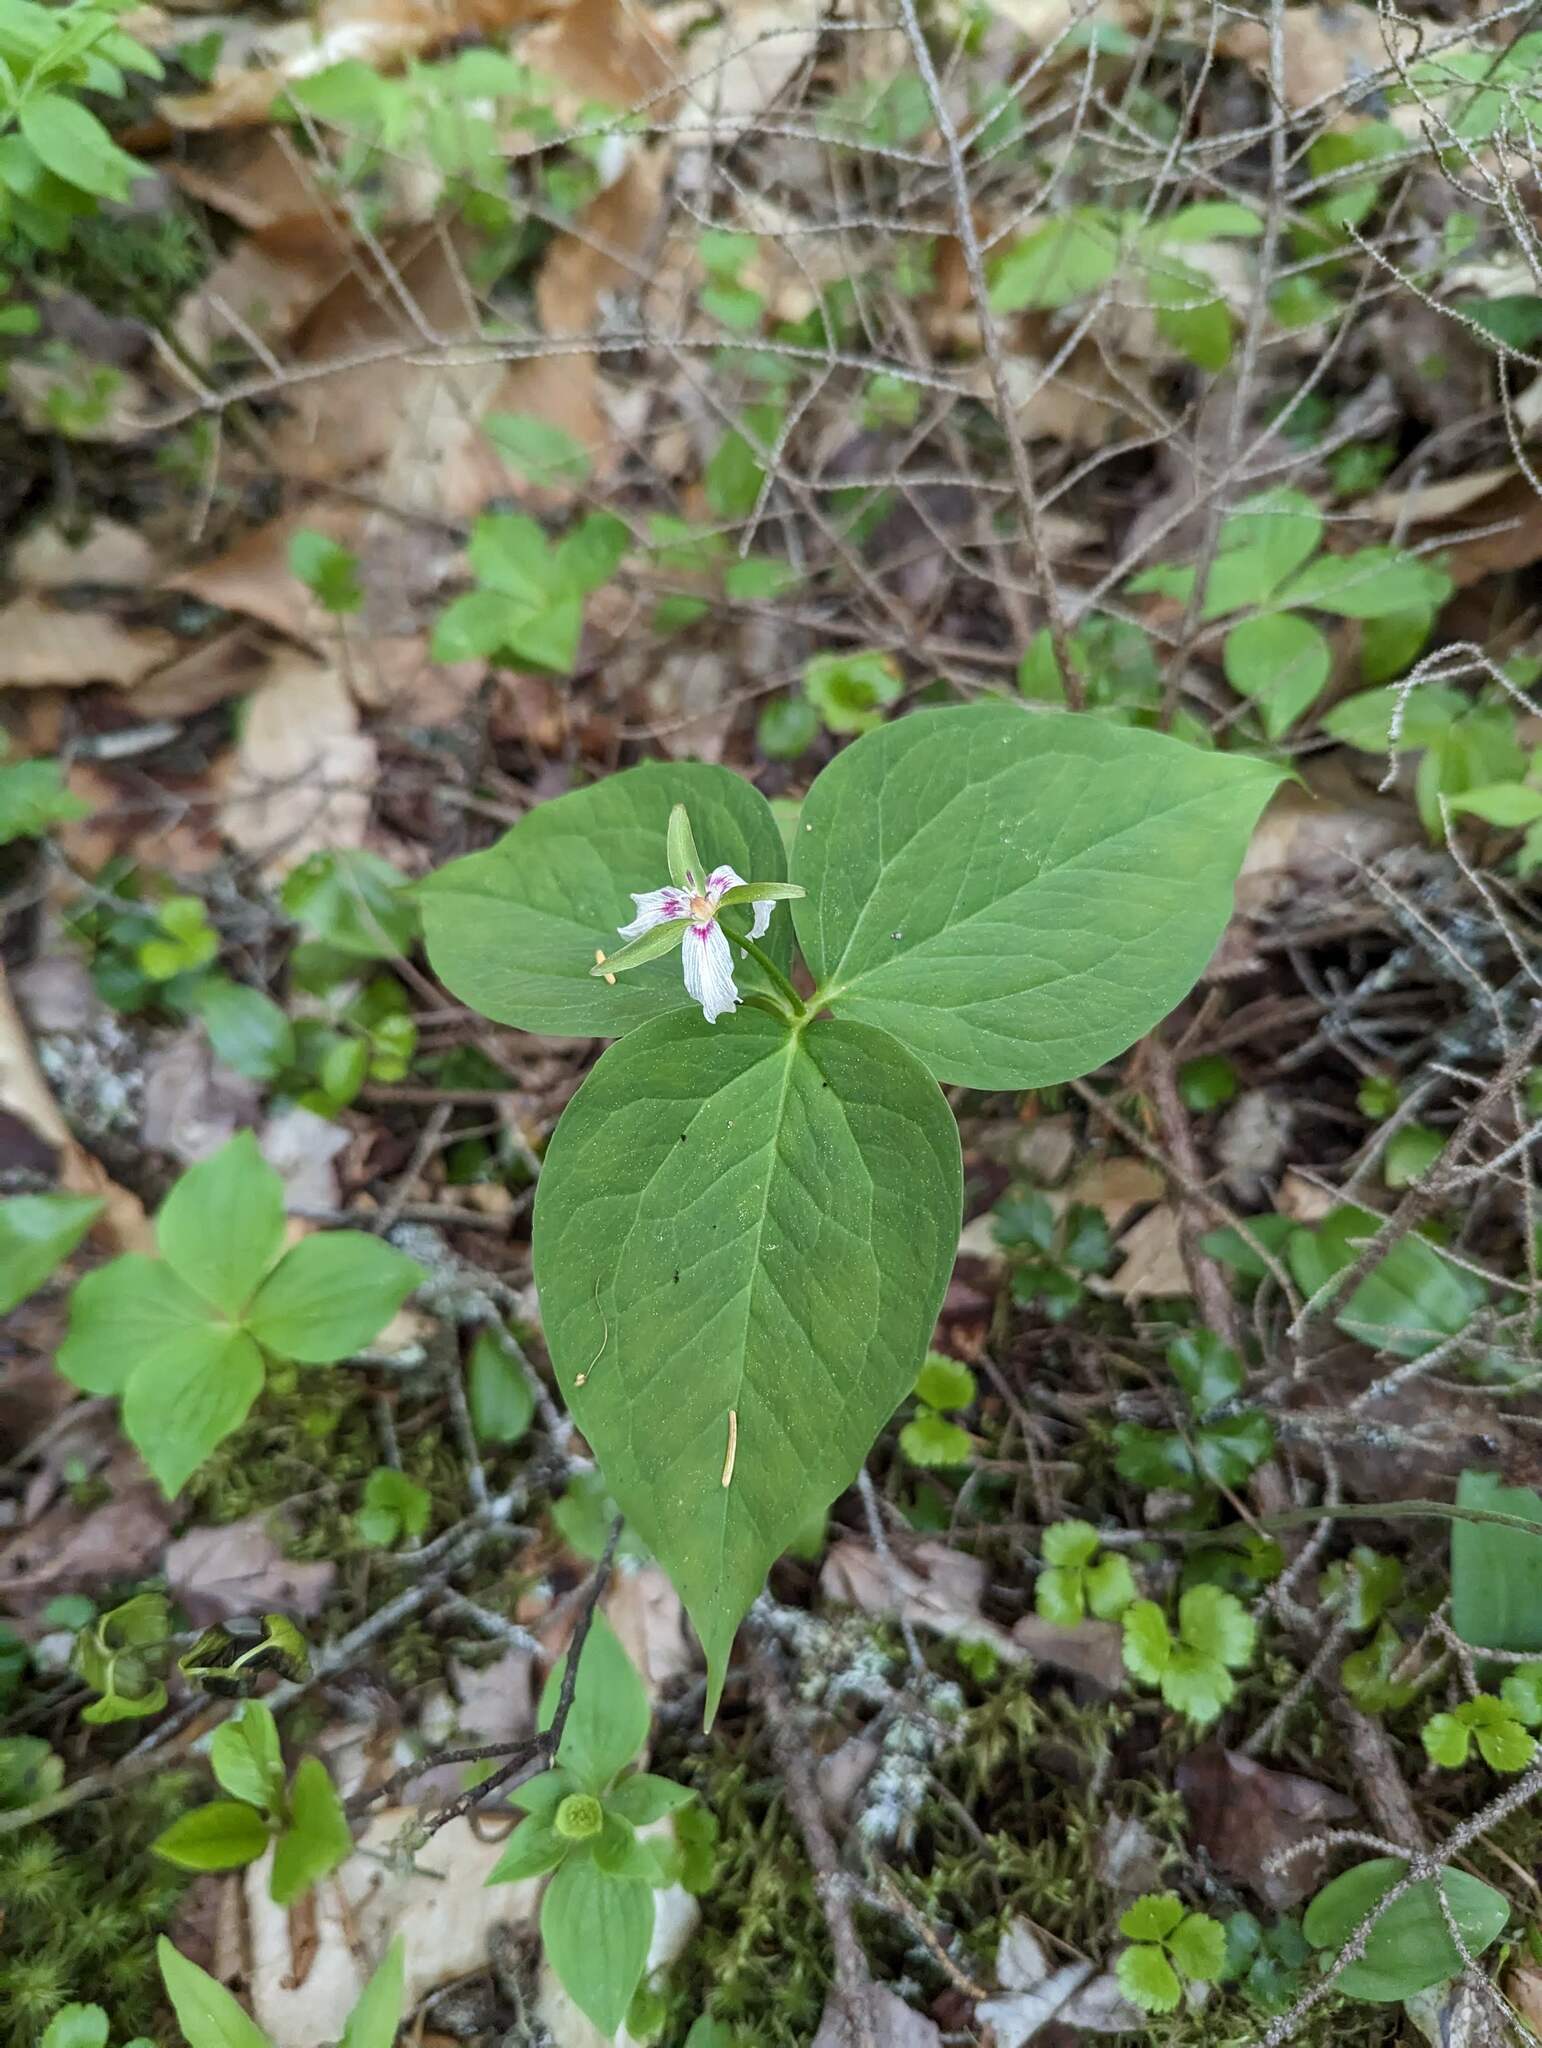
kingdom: Plantae
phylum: Tracheophyta
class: Liliopsida
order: Liliales
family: Melanthiaceae
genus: Trillium
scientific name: Trillium undulatum
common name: Paint trillium
